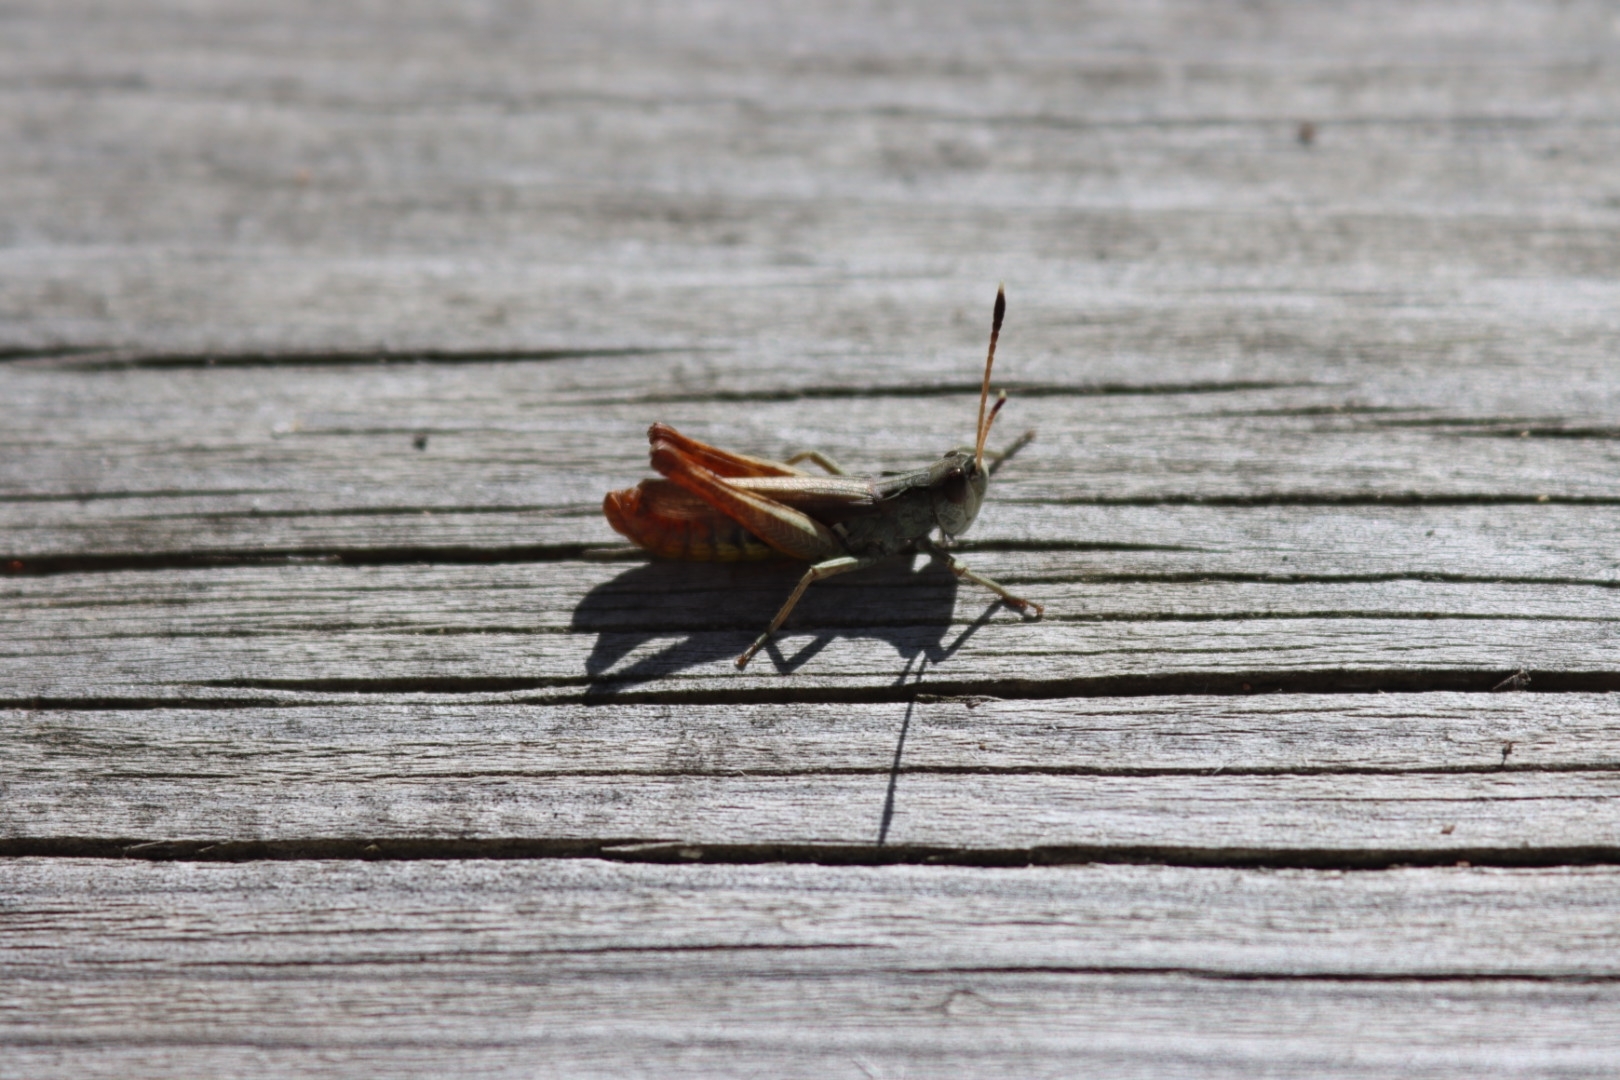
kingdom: Animalia
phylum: Arthropoda
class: Insecta
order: Orthoptera
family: Acrididae
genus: Gomphocerippus
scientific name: Gomphocerippus rufus
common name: Rufous grasshopper
